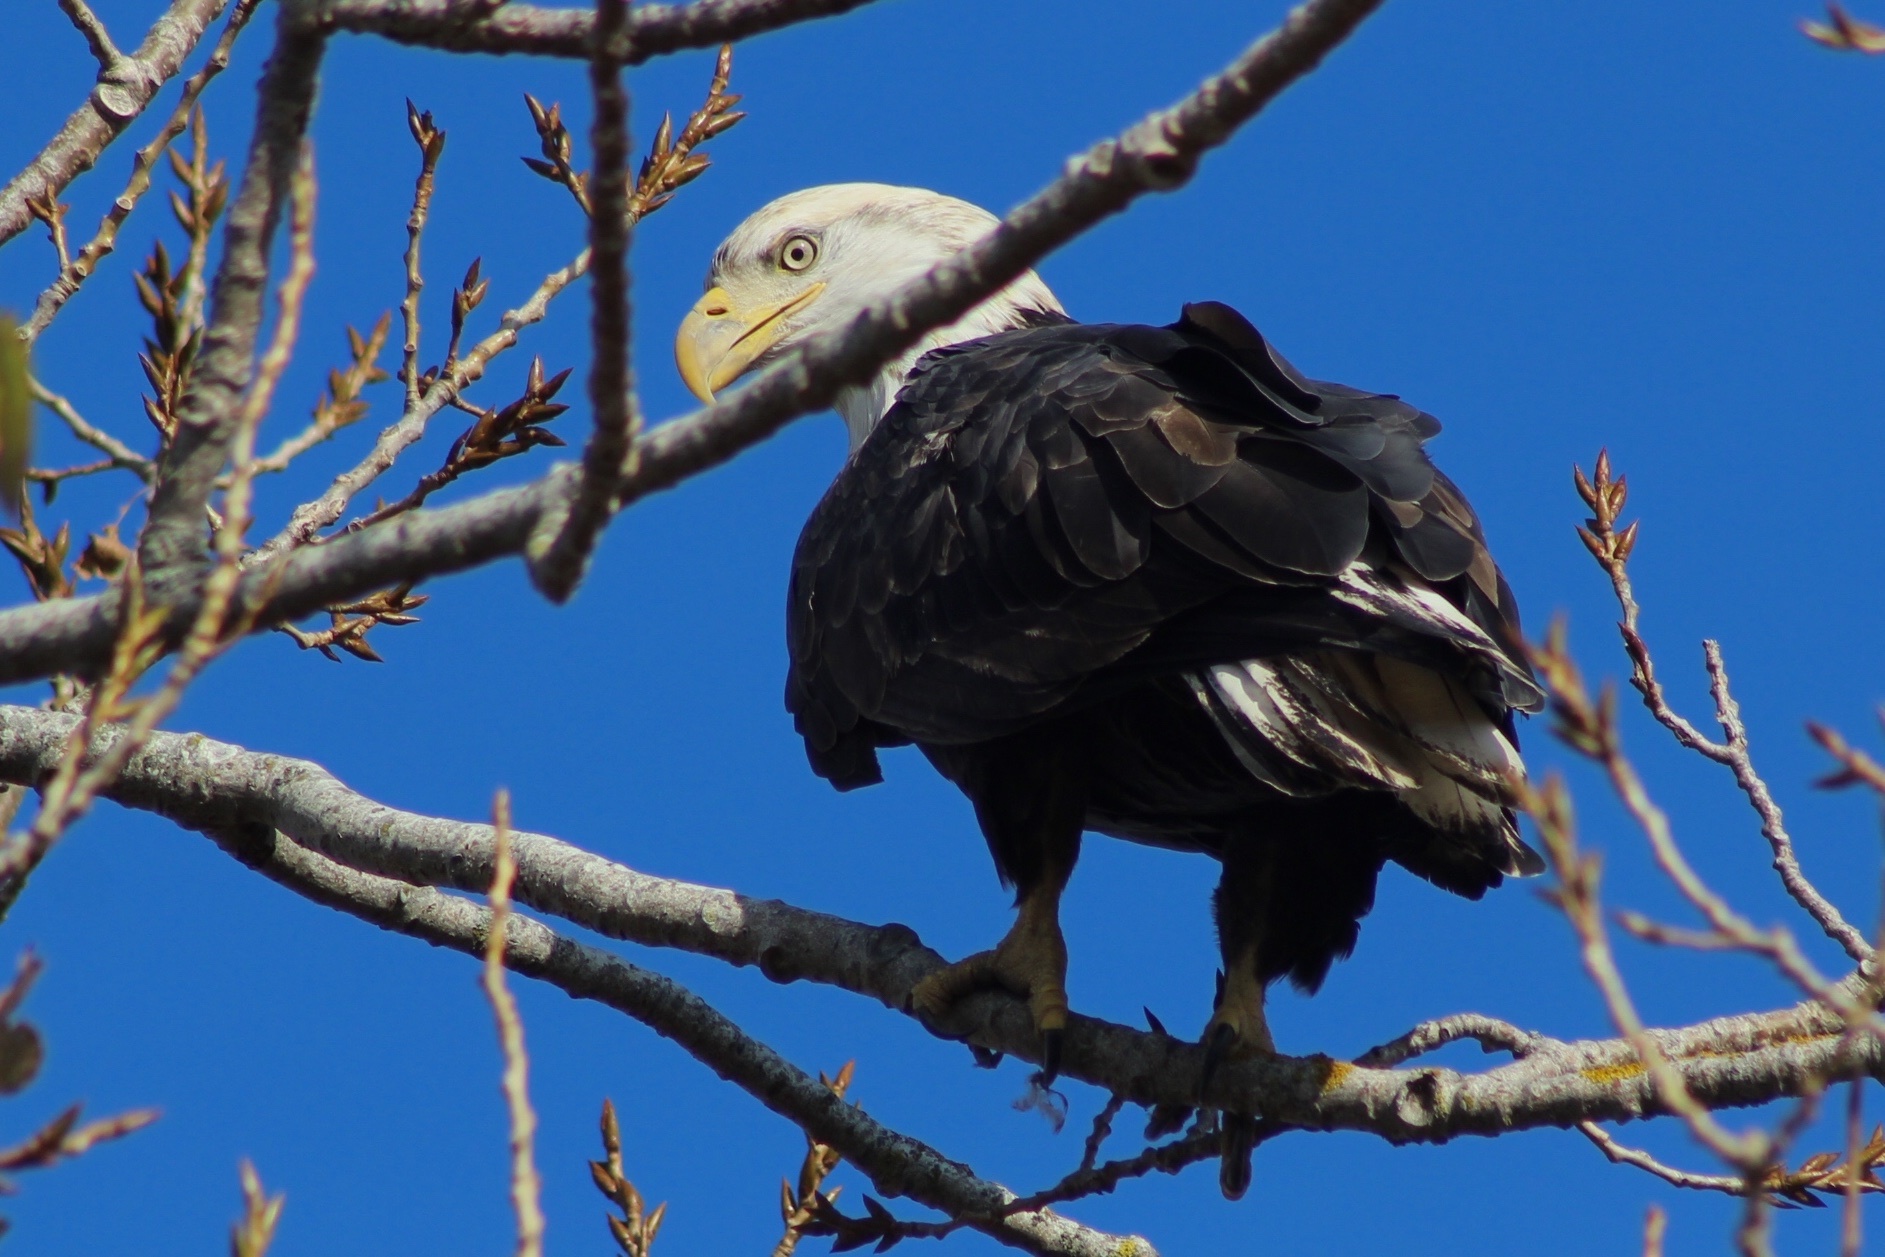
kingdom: Animalia
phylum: Chordata
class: Aves
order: Accipitriformes
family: Accipitridae
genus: Haliaeetus
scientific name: Haliaeetus leucocephalus
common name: Bald eagle
